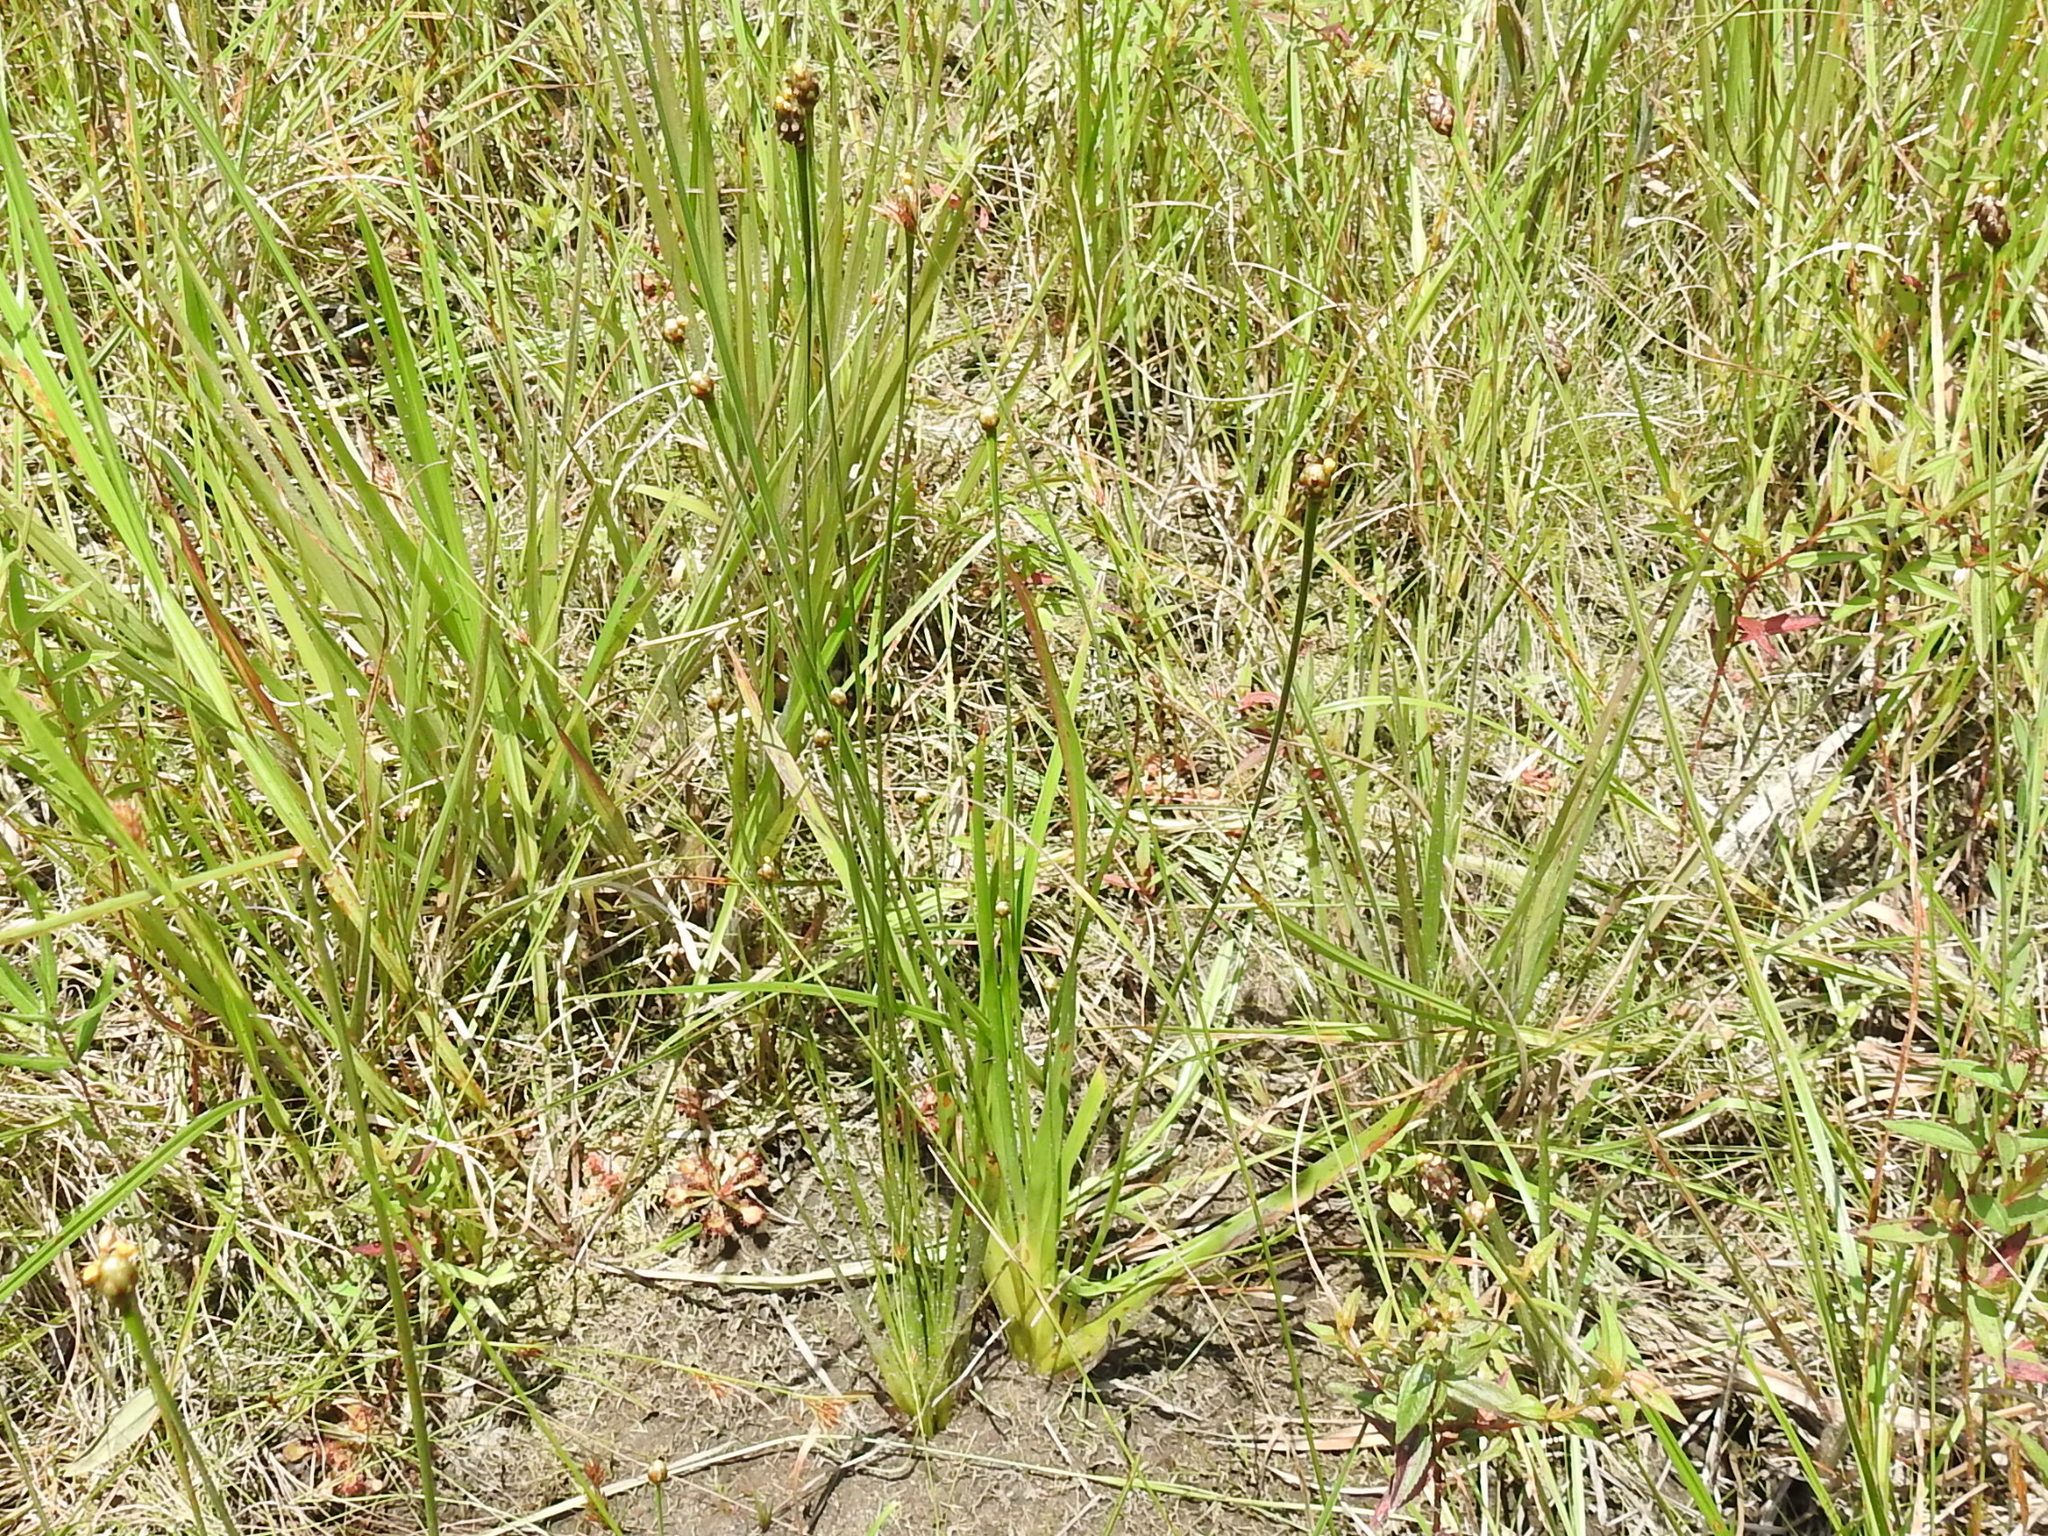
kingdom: Plantae
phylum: Tracheophyta
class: Liliopsida
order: Poales
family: Xyridaceae
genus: Xyris
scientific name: Xyris difformis
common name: Bog yellow-eyed-grass
